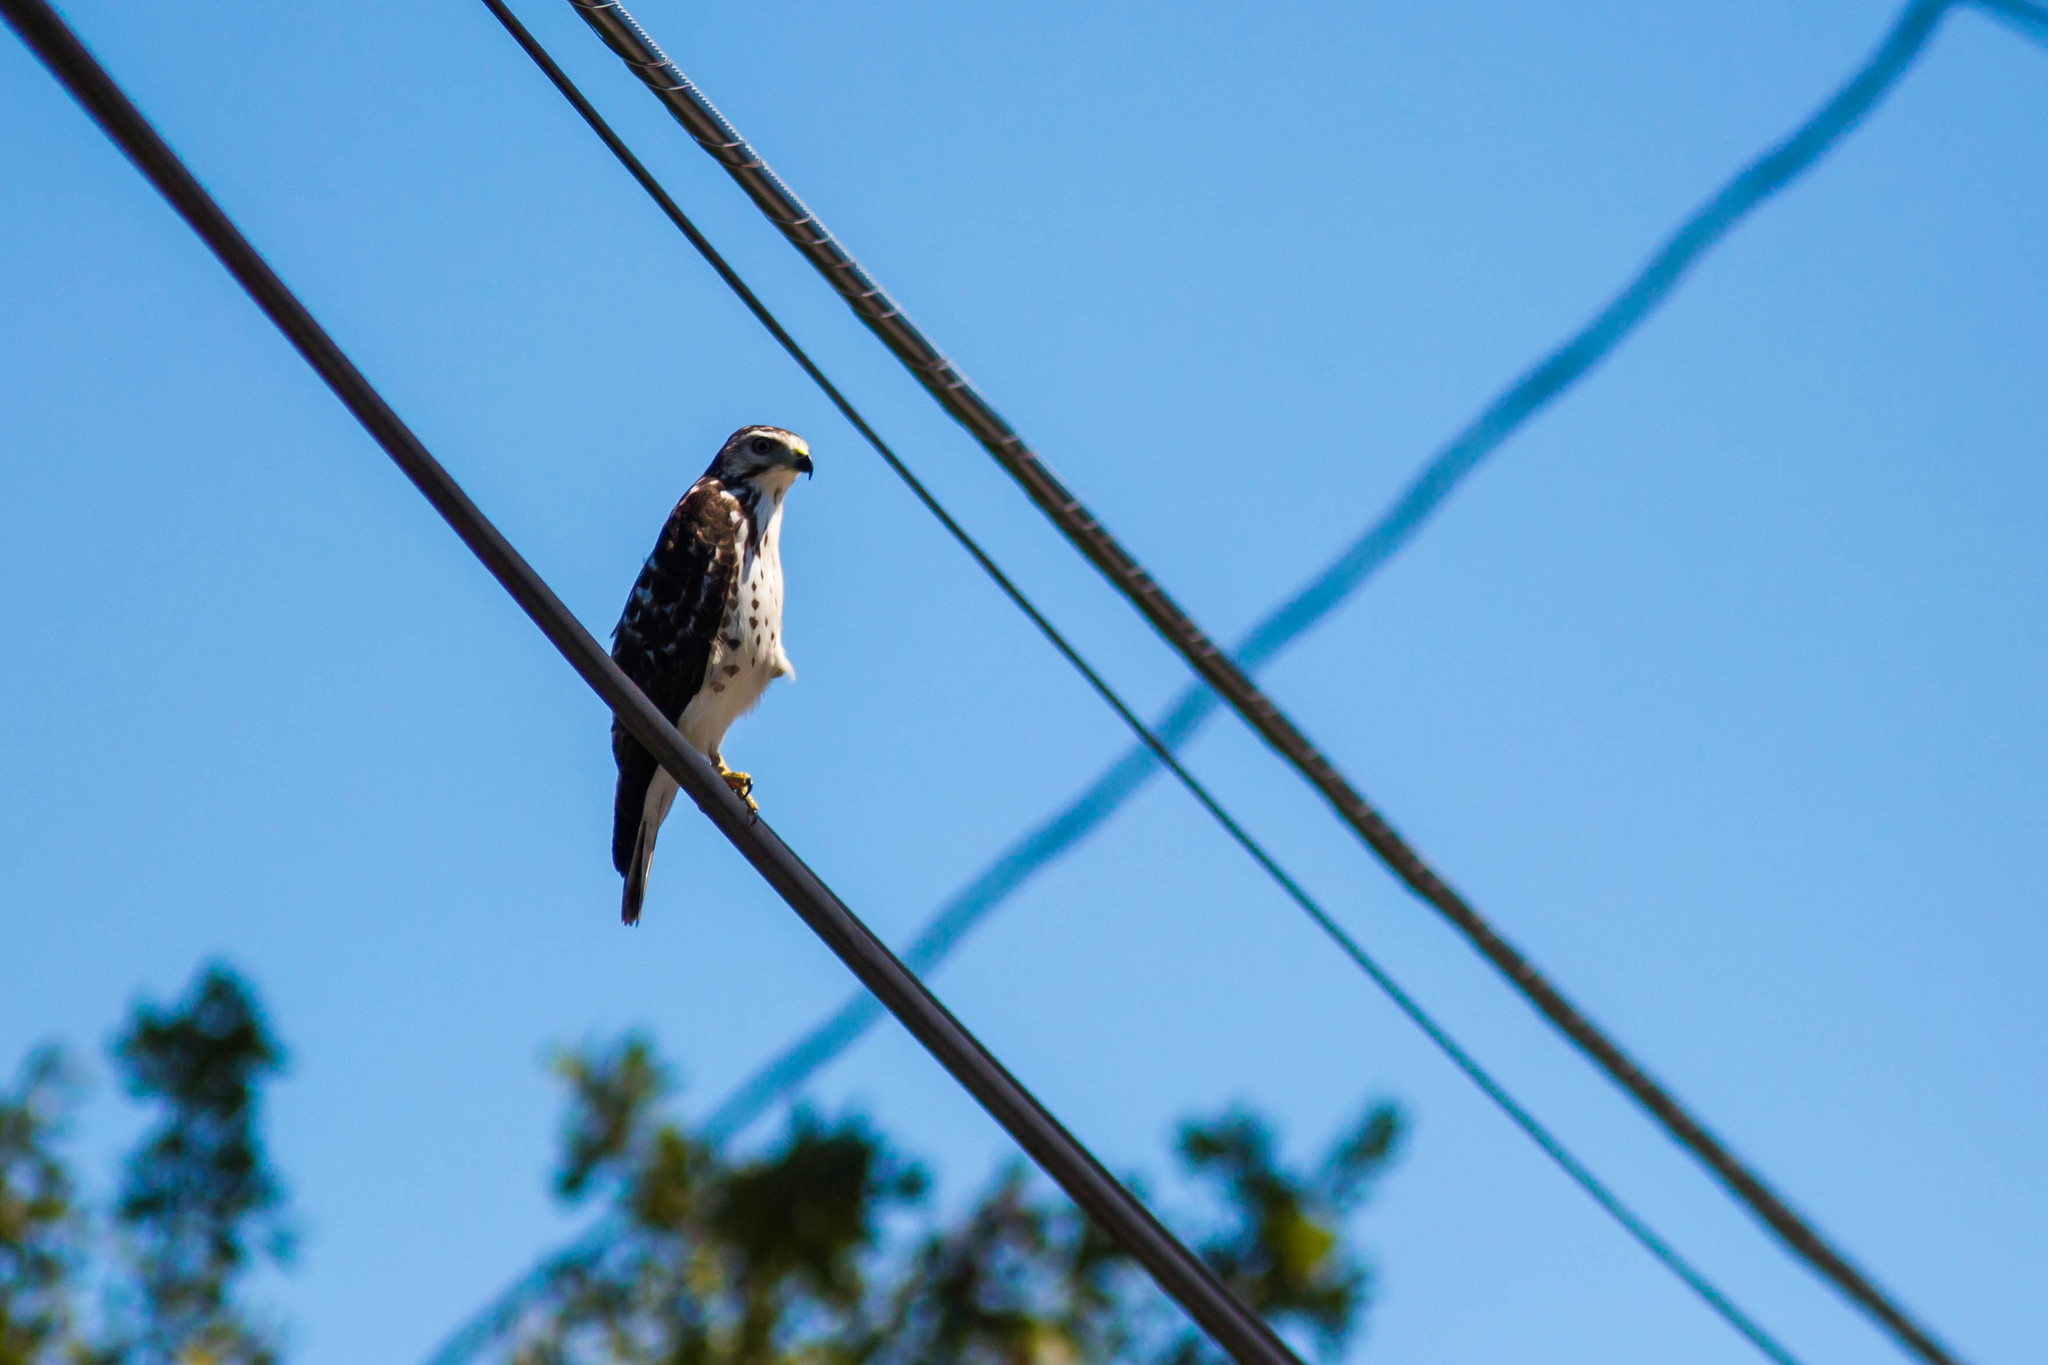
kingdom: Animalia
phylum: Chordata
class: Aves
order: Accipitriformes
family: Accipitridae
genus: Buteo
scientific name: Buteo platypterus
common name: Broad-winged hawk
